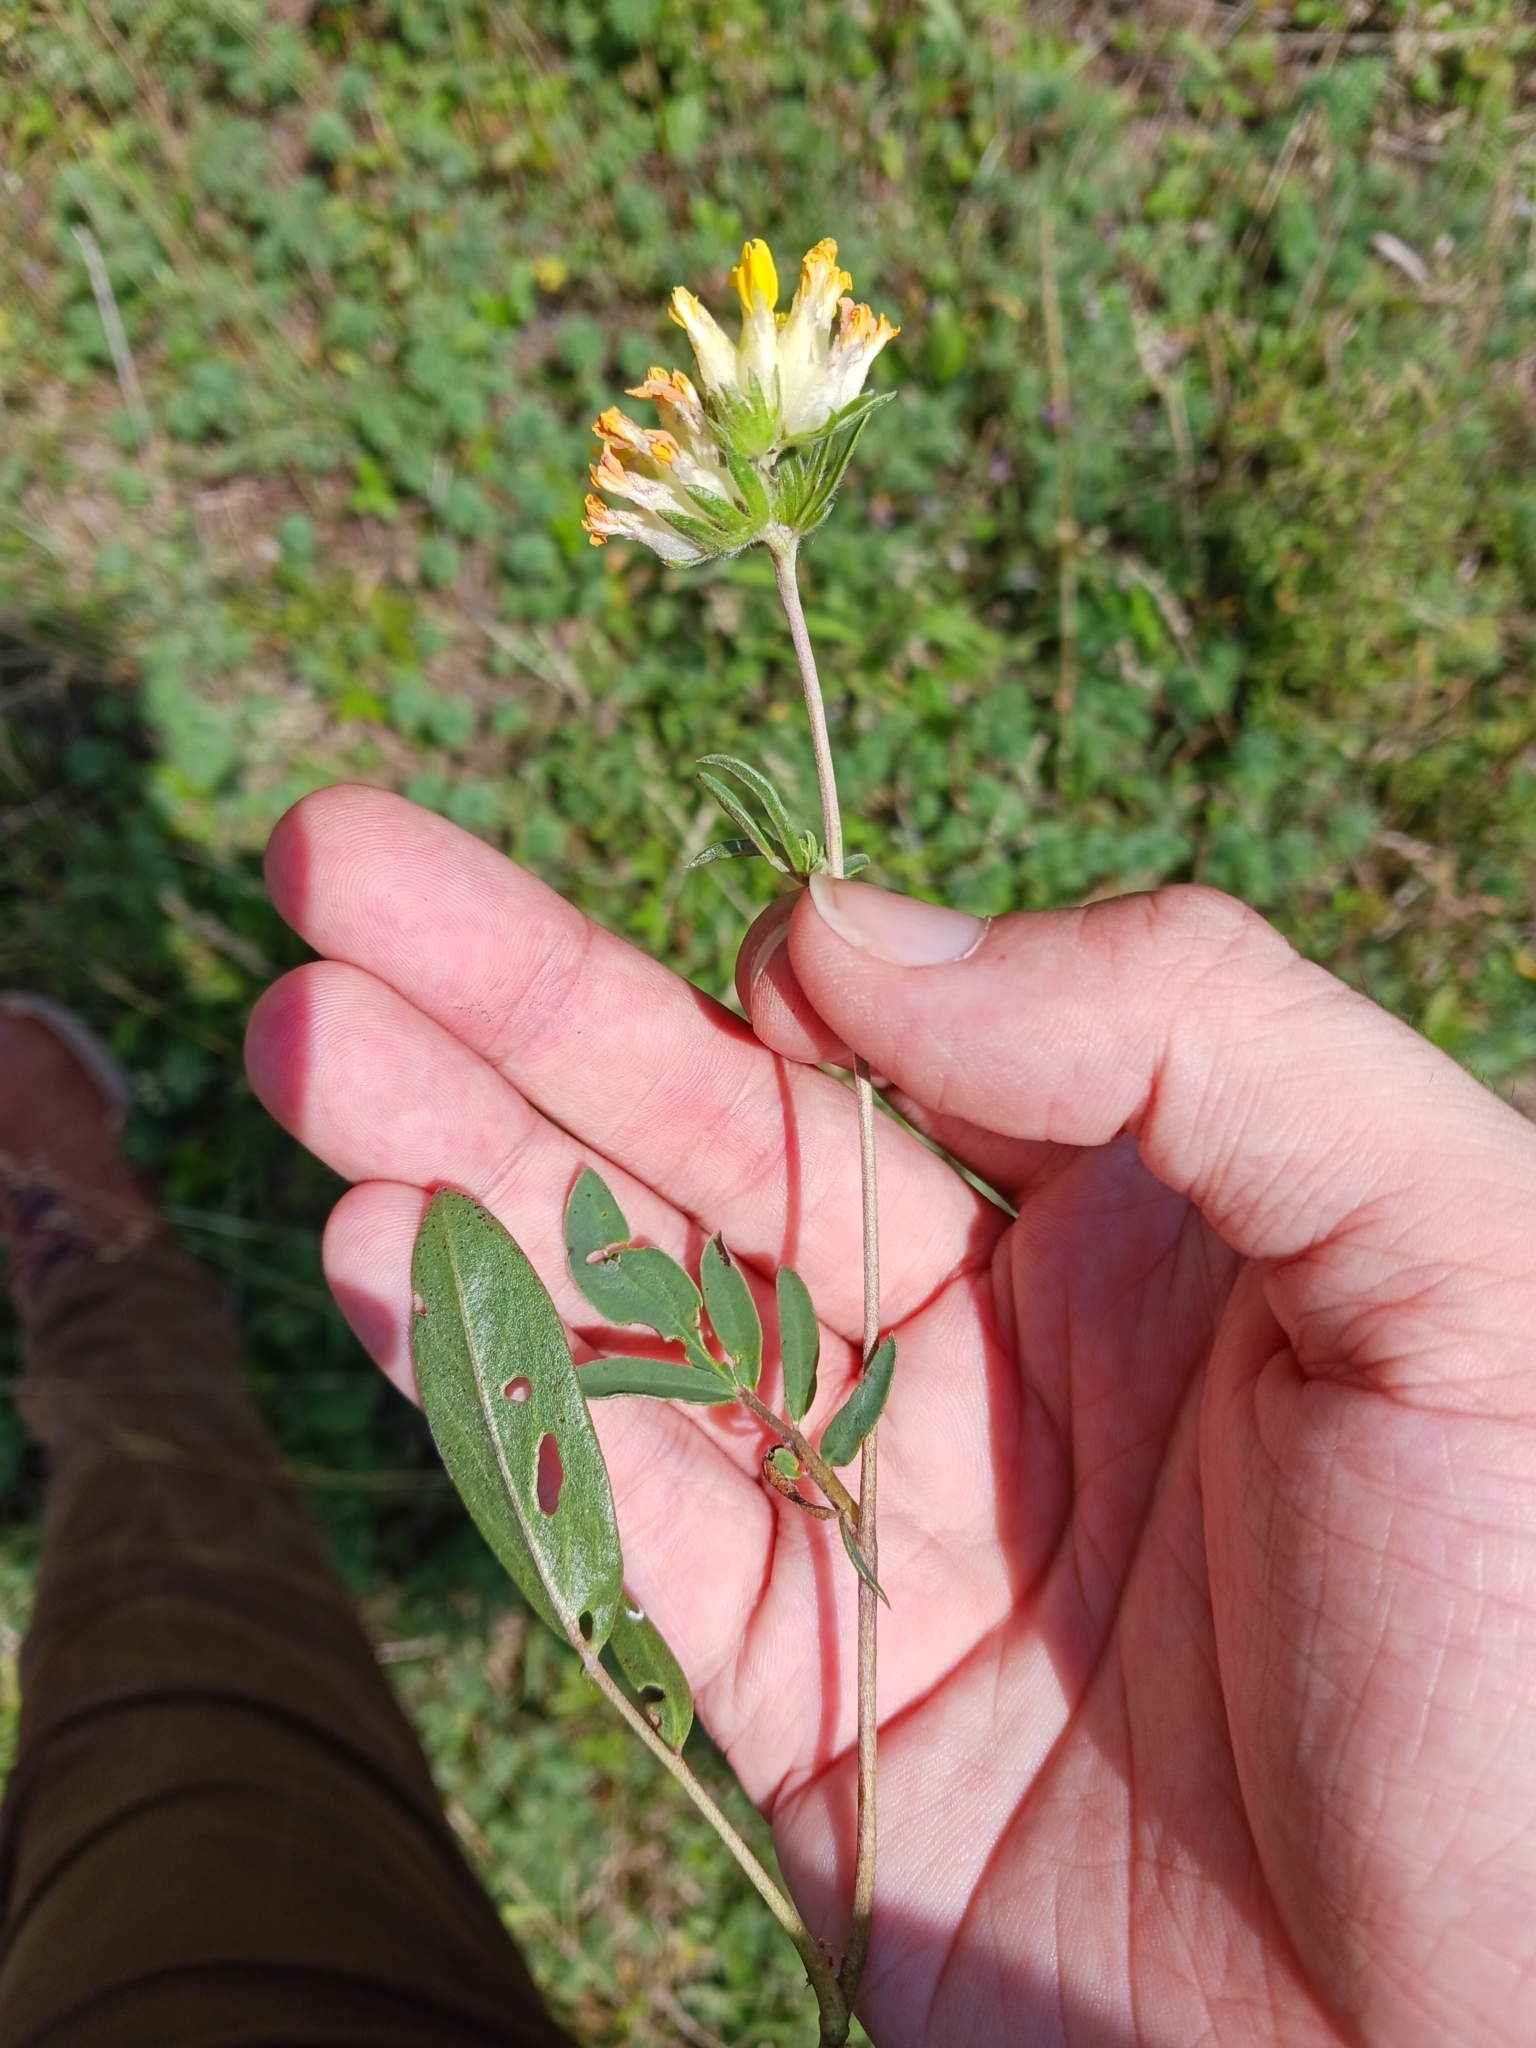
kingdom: Plantae
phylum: Tracheophyta
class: Magnoliopsida
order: Fabales
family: Fabaceae
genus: Anthyllis
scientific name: Anthyllis vulneraria
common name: Kidney vetch
